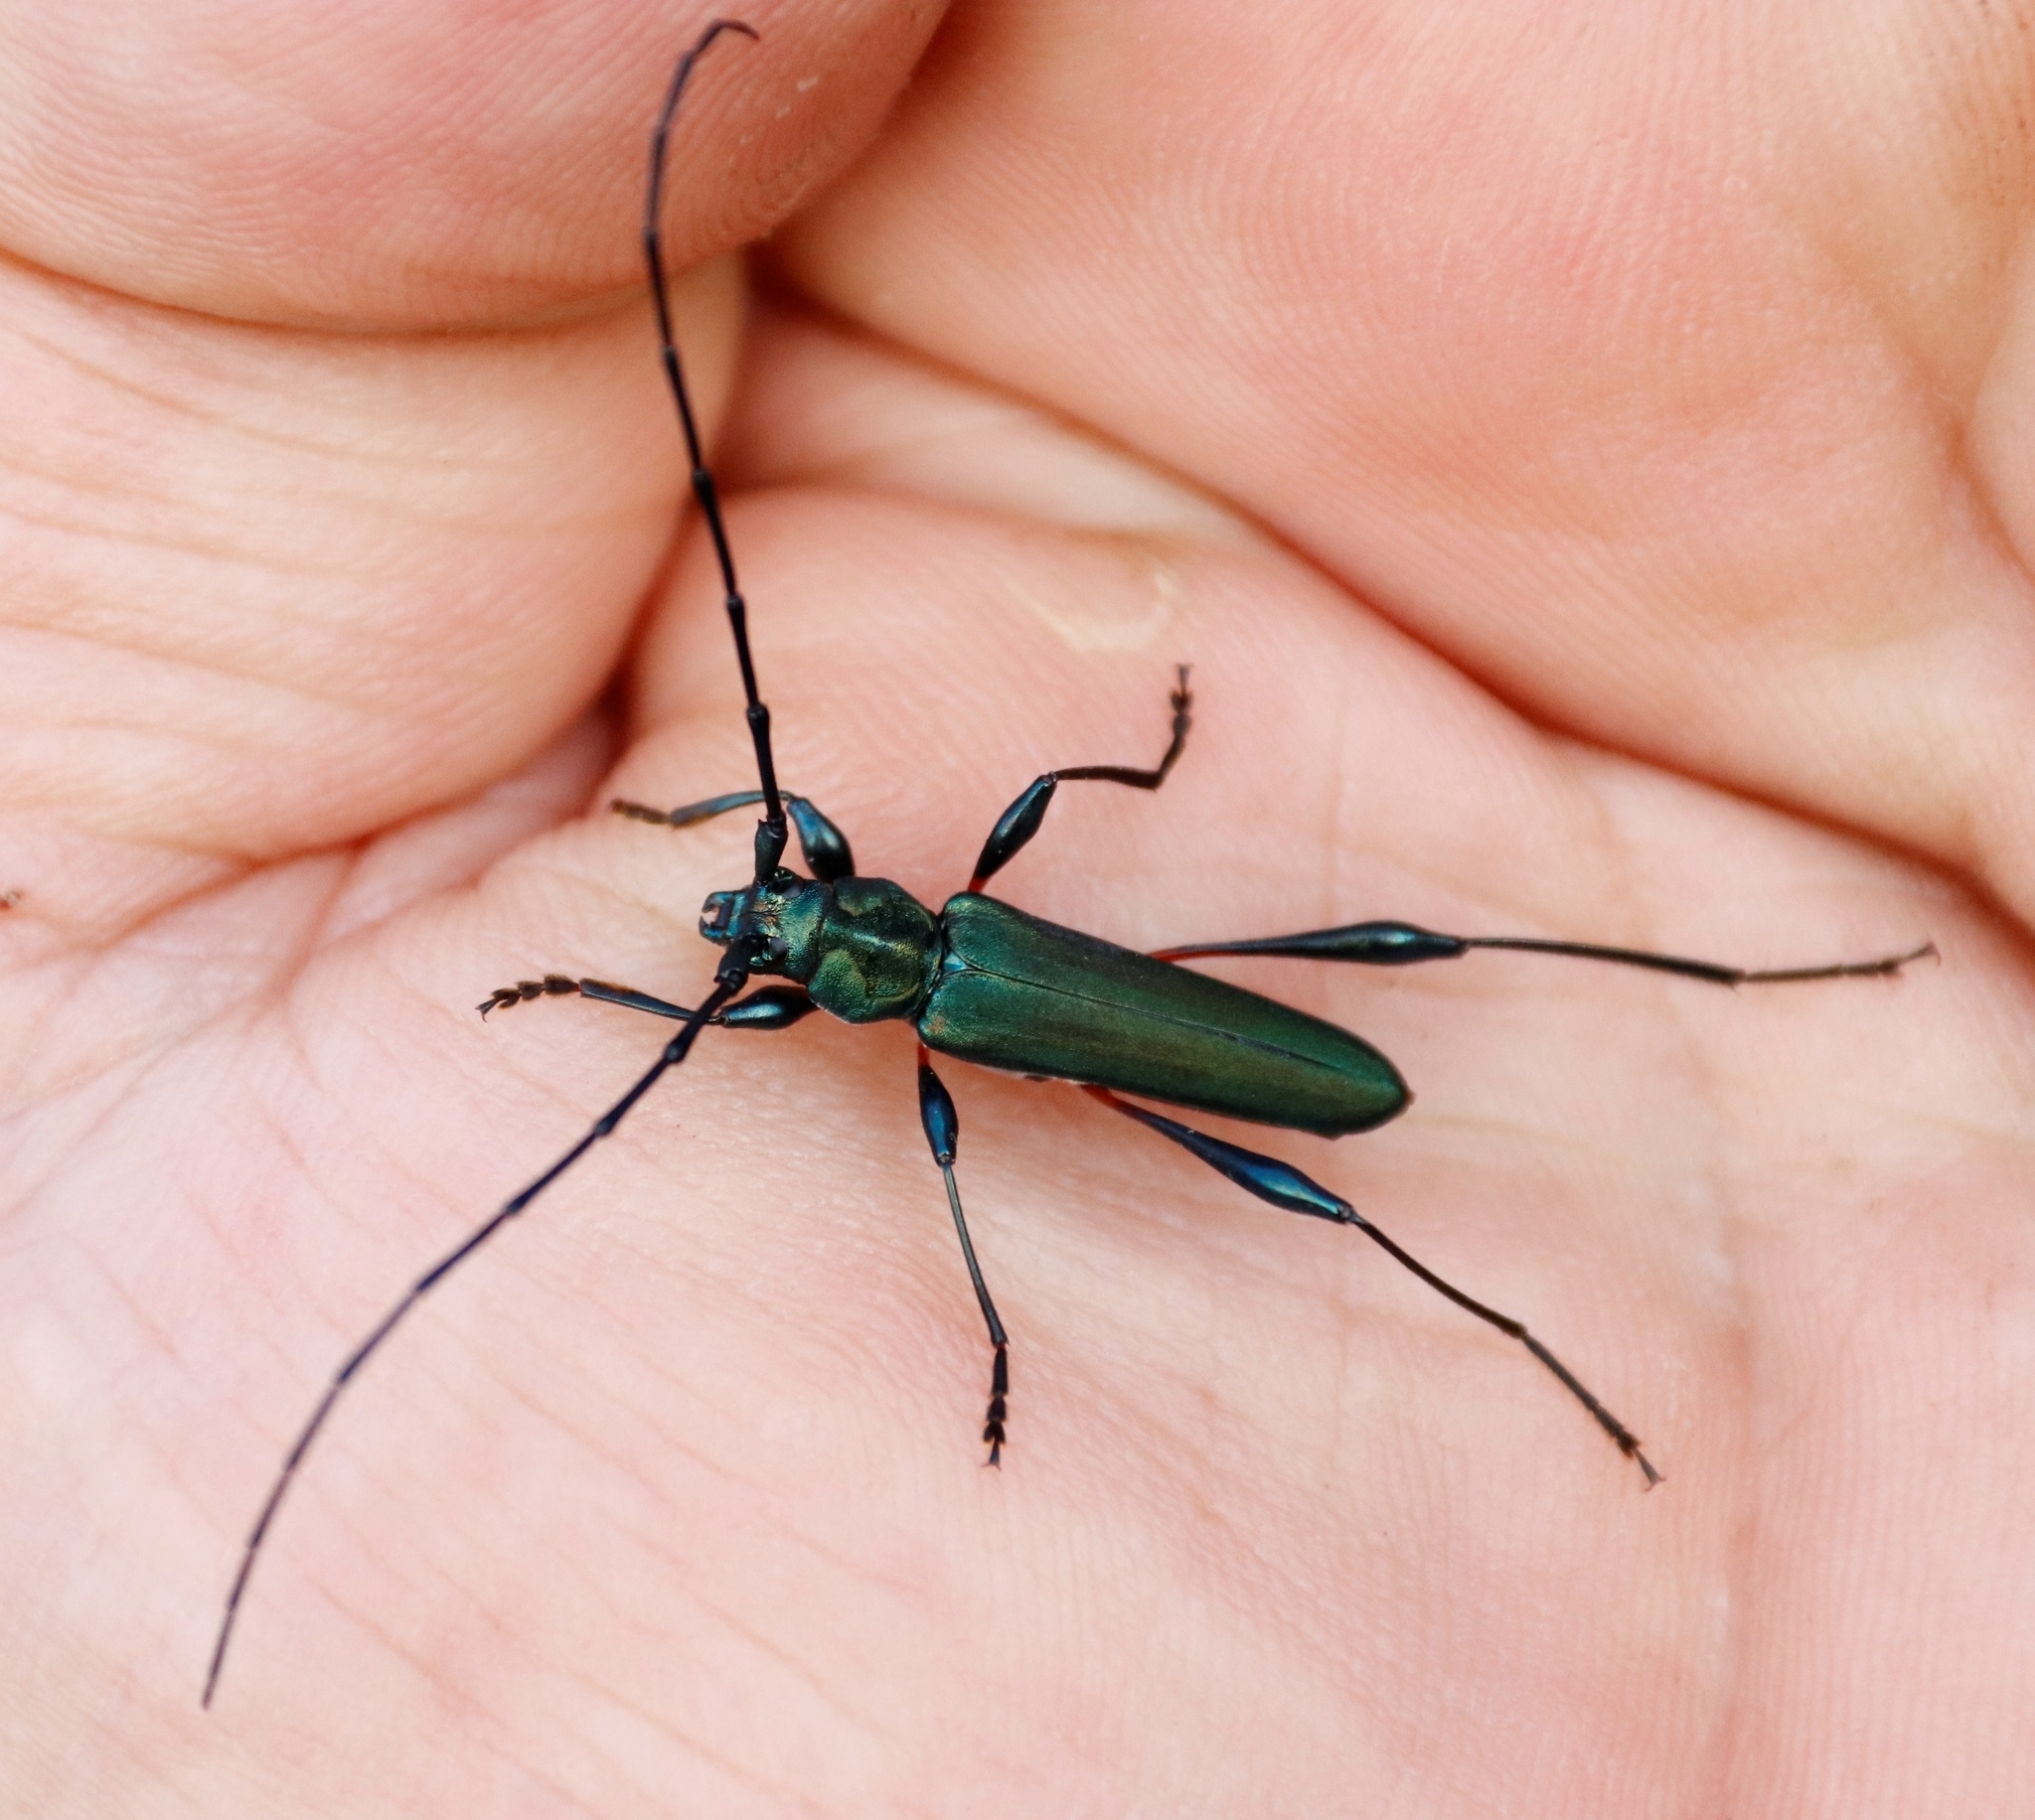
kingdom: Animalia
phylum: Arthropoda
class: Insecta
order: Coleoptera
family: Cerambycidae
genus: Litopus
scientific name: Litopus latipes
